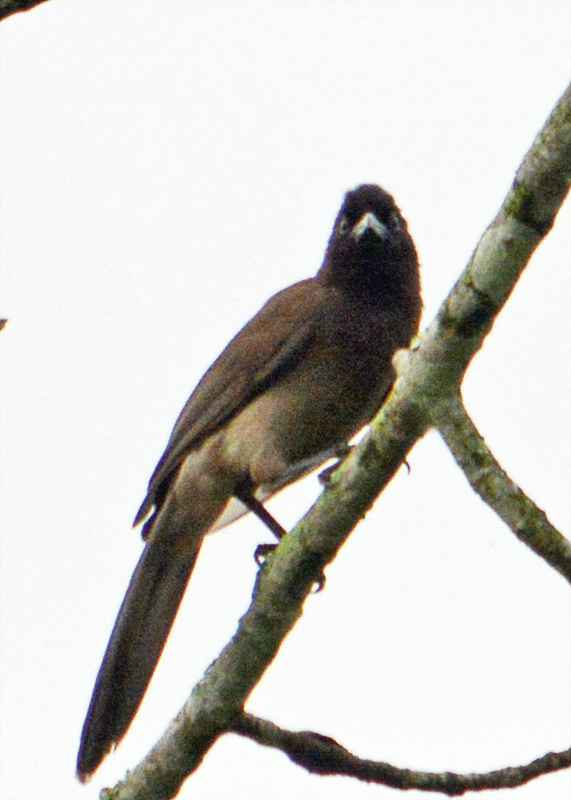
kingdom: Animalia
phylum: Chordata
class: Aves
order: Passeriformes
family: Corvidae
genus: Psilorhinus
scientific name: Psilorhinus morio
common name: Brown jay
